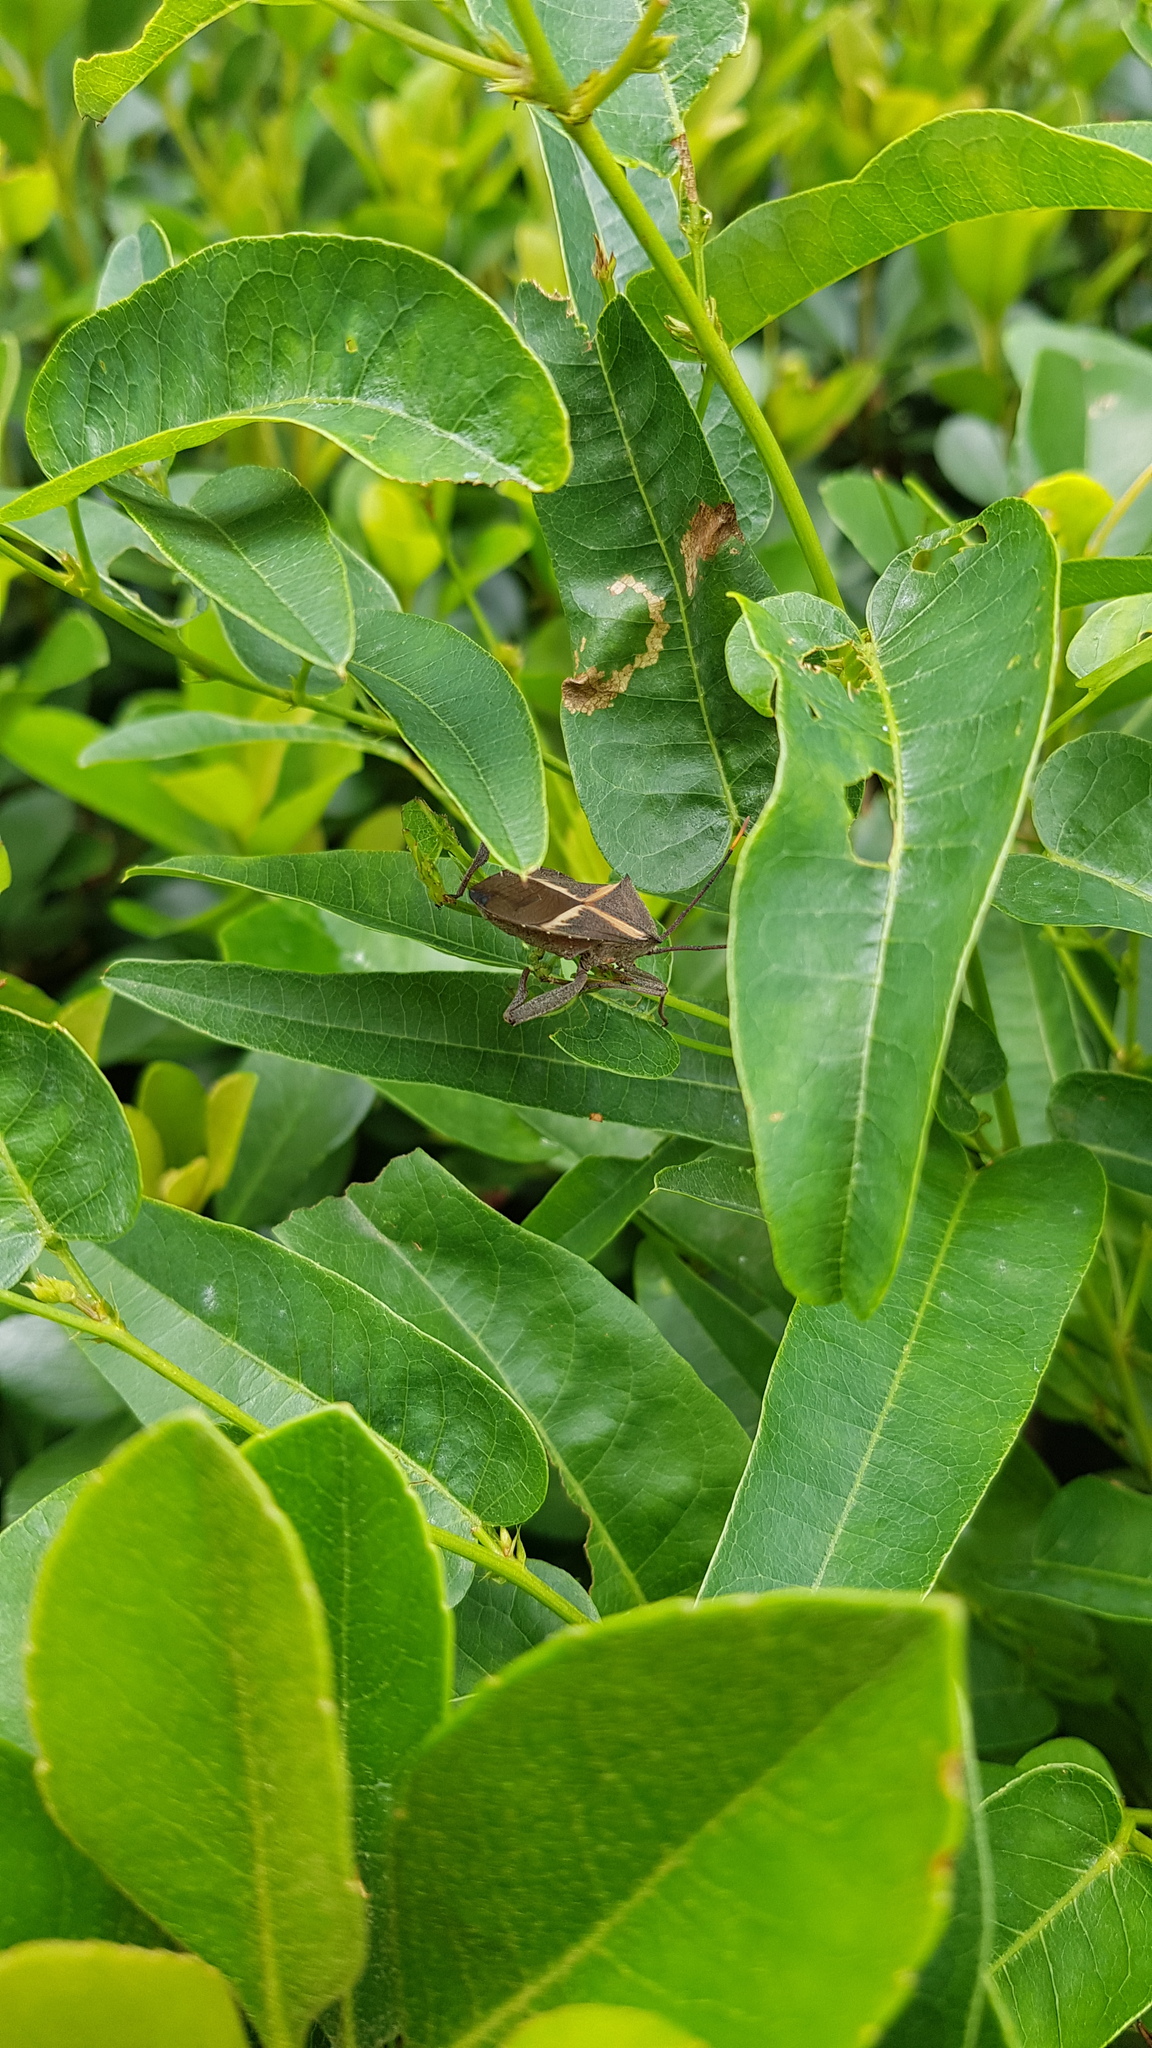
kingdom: Animalia
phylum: Arthropoda
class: Insecta
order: Hemiptera
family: Coreidae
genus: Mictis
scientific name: Mictis profana
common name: Crusader bug
